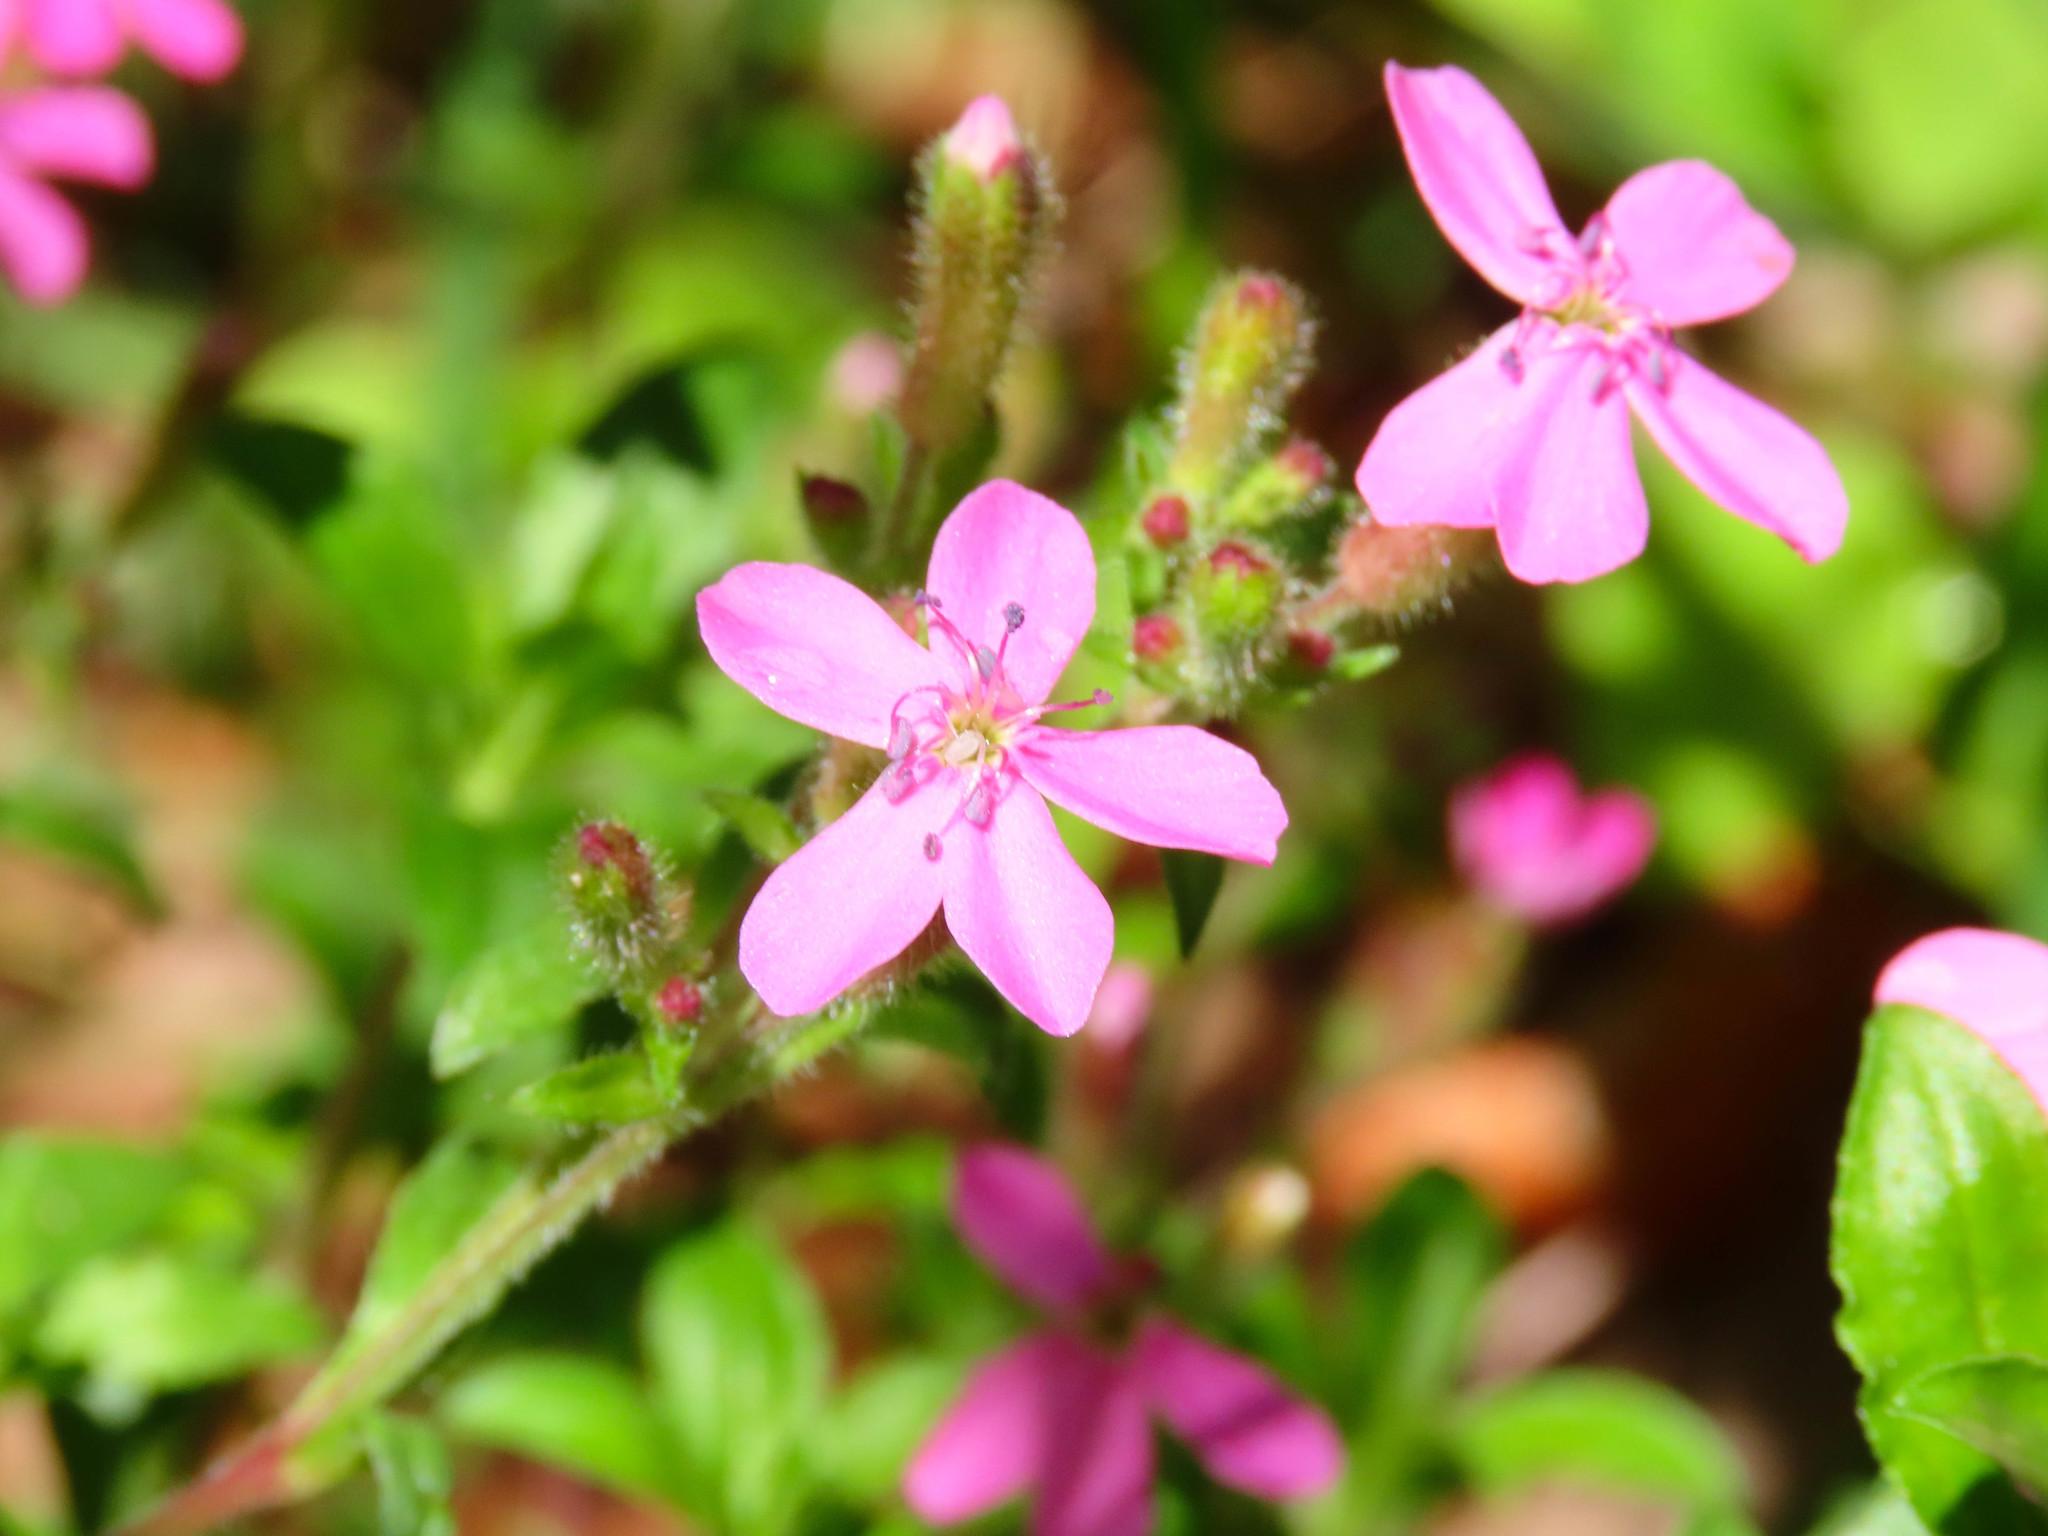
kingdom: Plantae
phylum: Tracheophyta
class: Magnoliopsida
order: Caryophyllales
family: Caryophyllaceae
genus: Saponaria
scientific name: Saponaria ocymoides
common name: Rock soapwort
